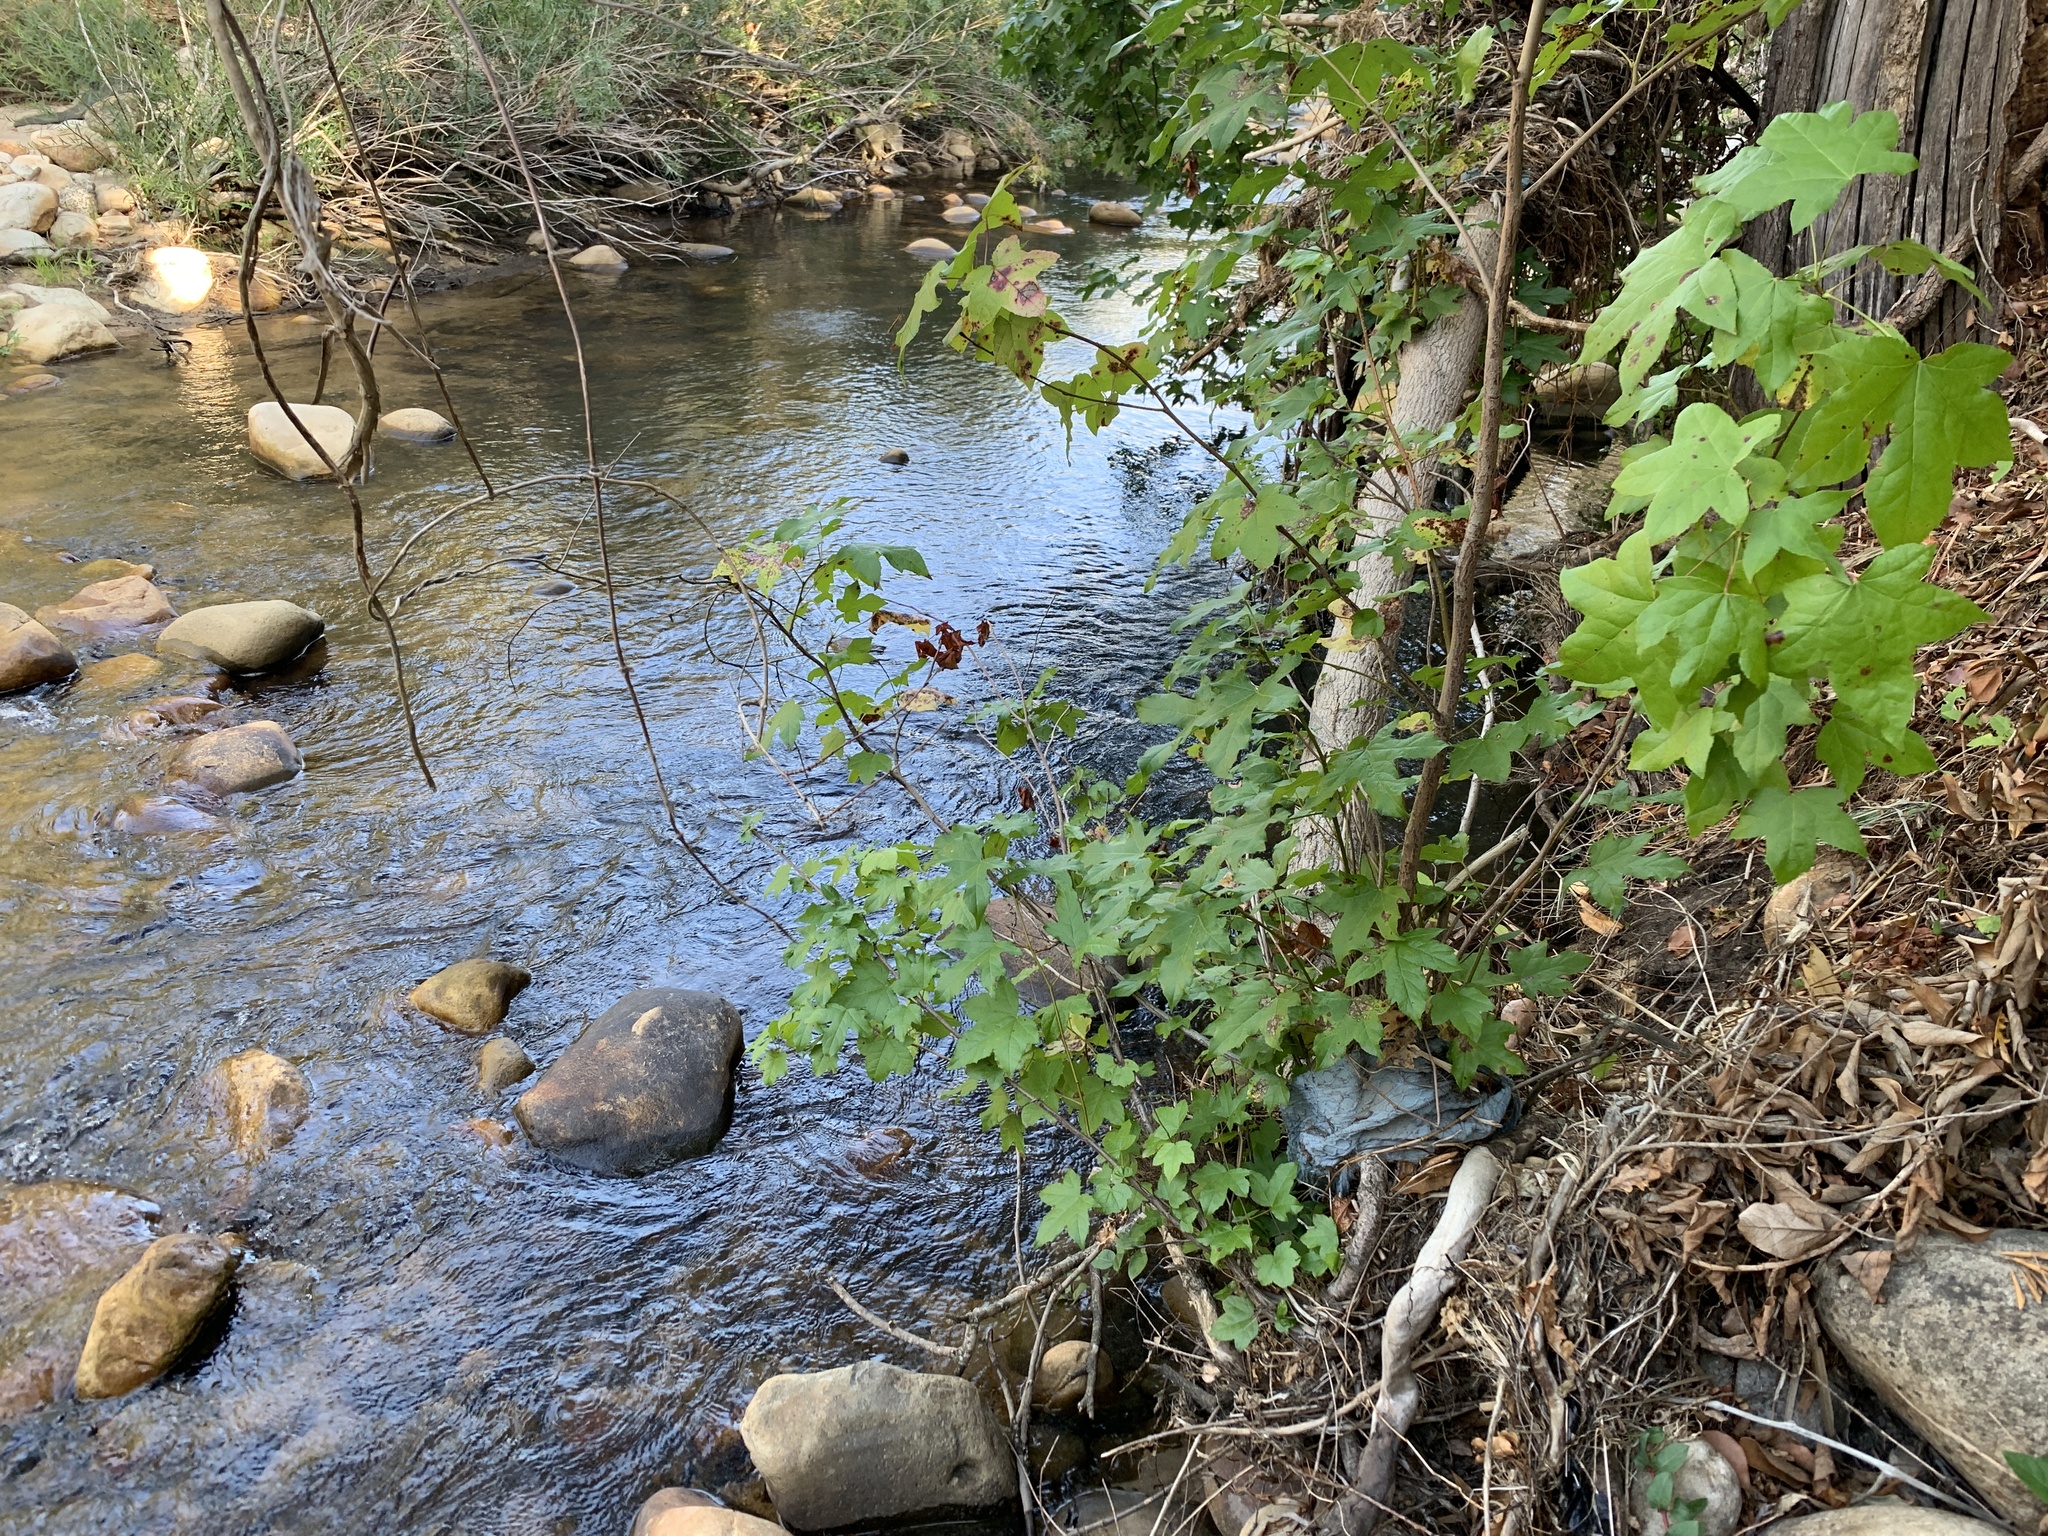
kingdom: Plantae
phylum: Tracheophyta
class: Magnoliopsida
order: Saxifragales
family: Altingiaceae
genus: Liquidambar
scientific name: Liquidambar styraciflua
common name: Sweet gum
